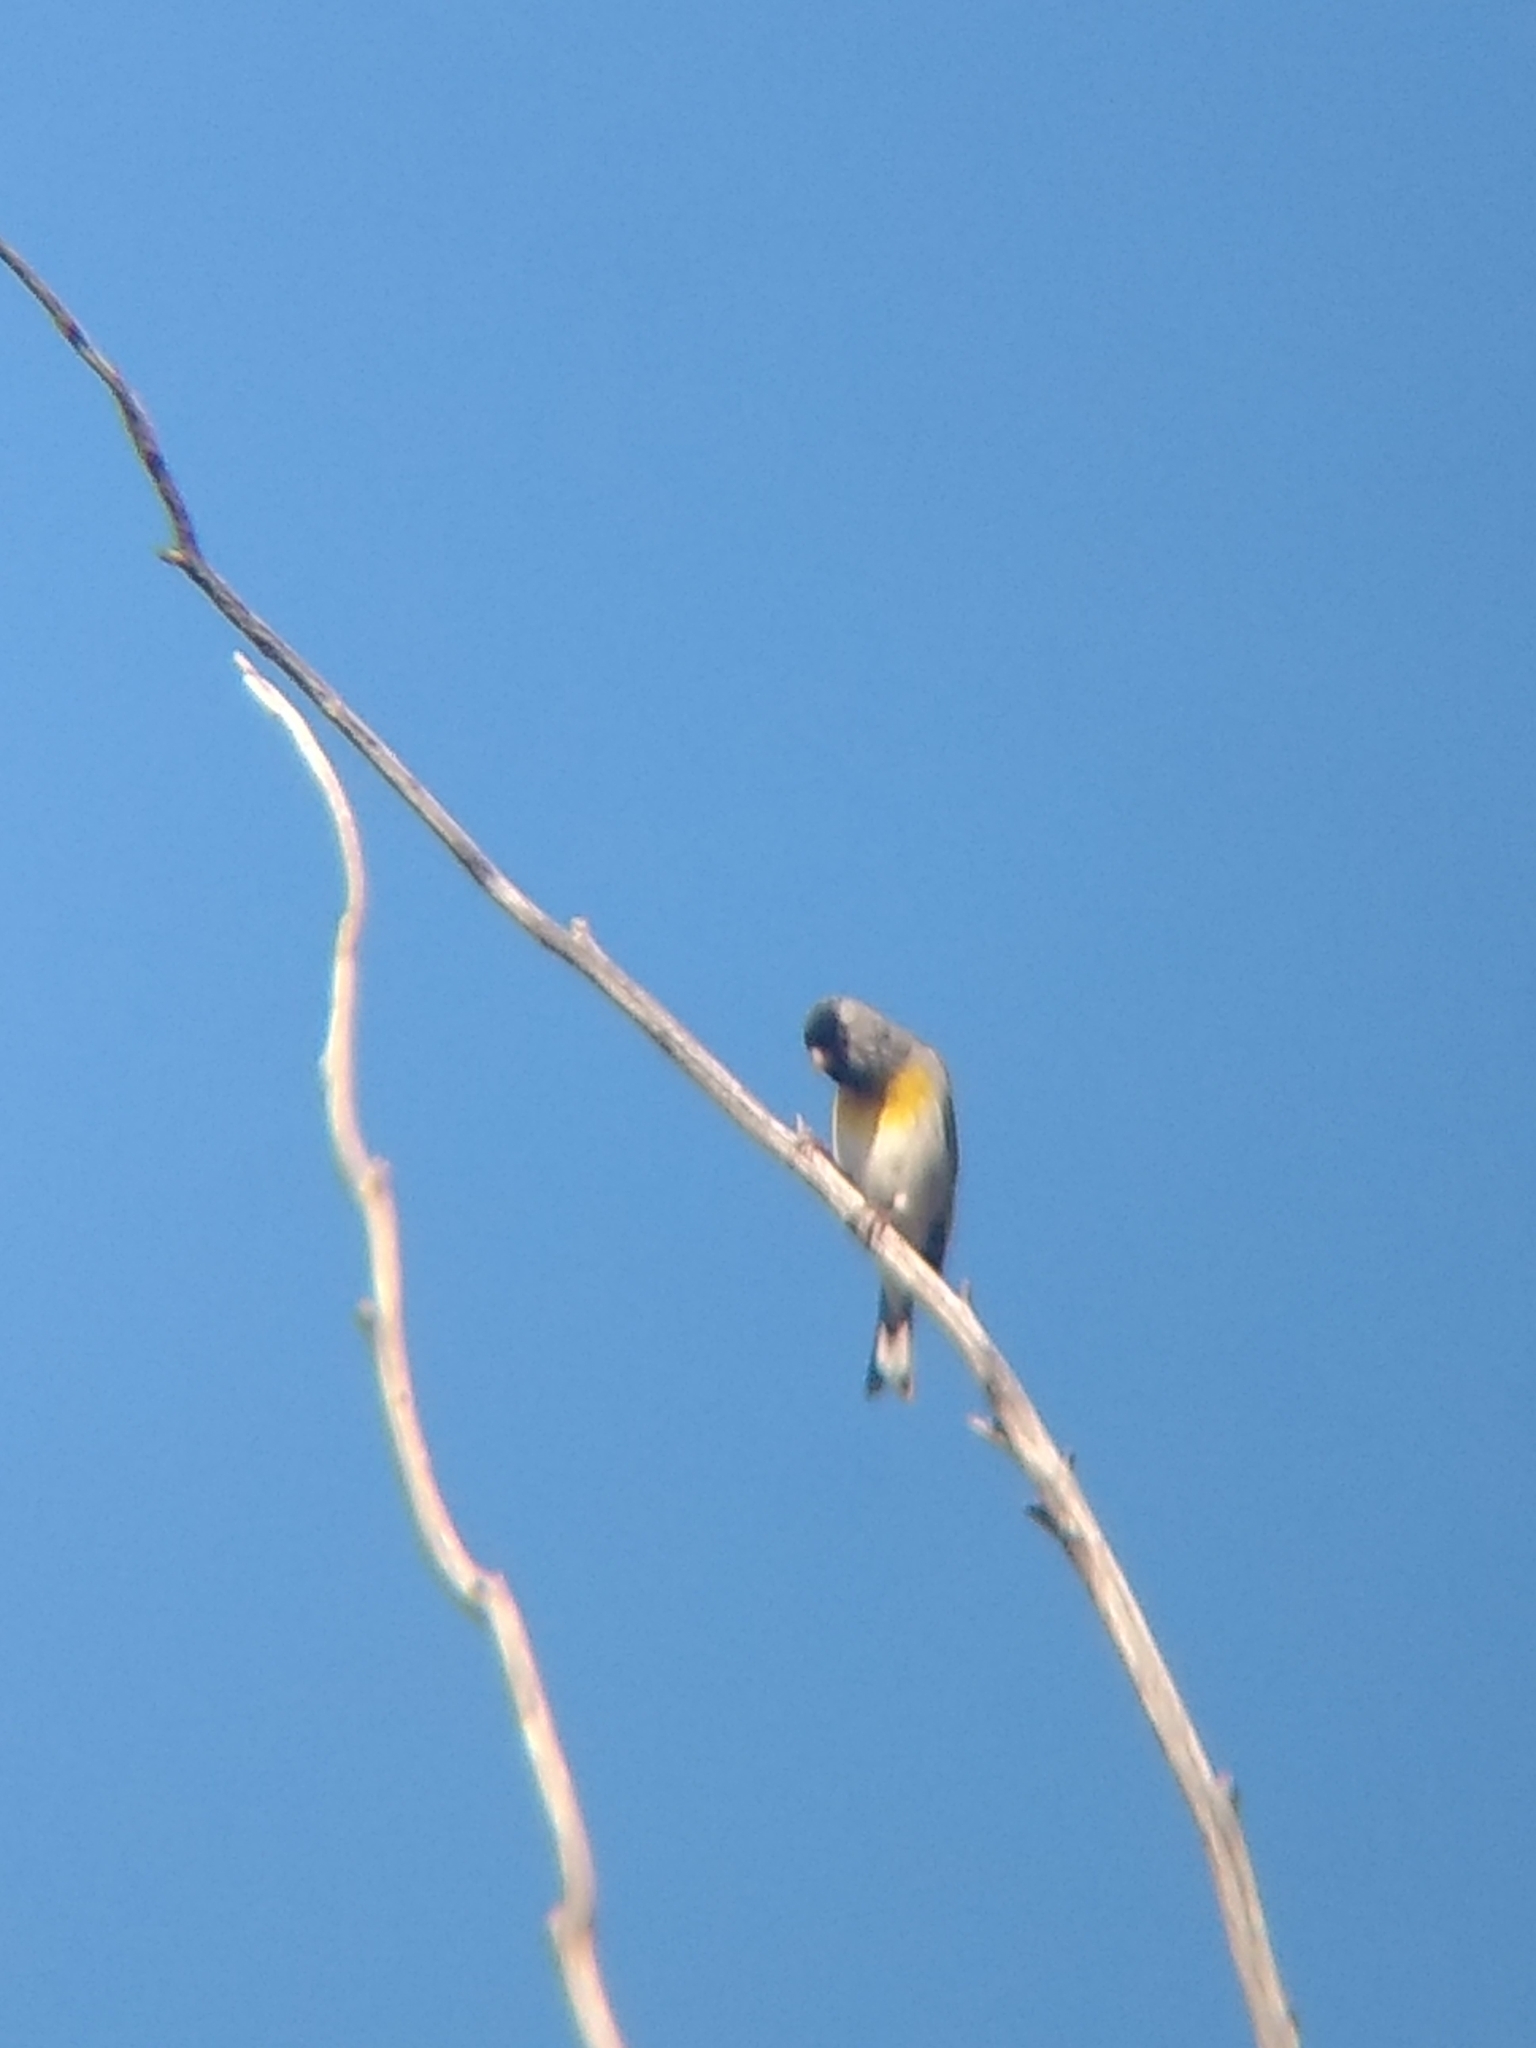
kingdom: Animalia
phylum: Chordata
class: Aves
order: Passeriformes
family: Fringillidae
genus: Spinus
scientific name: Spinus lawrencei
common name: Lawrence's goldfinch
